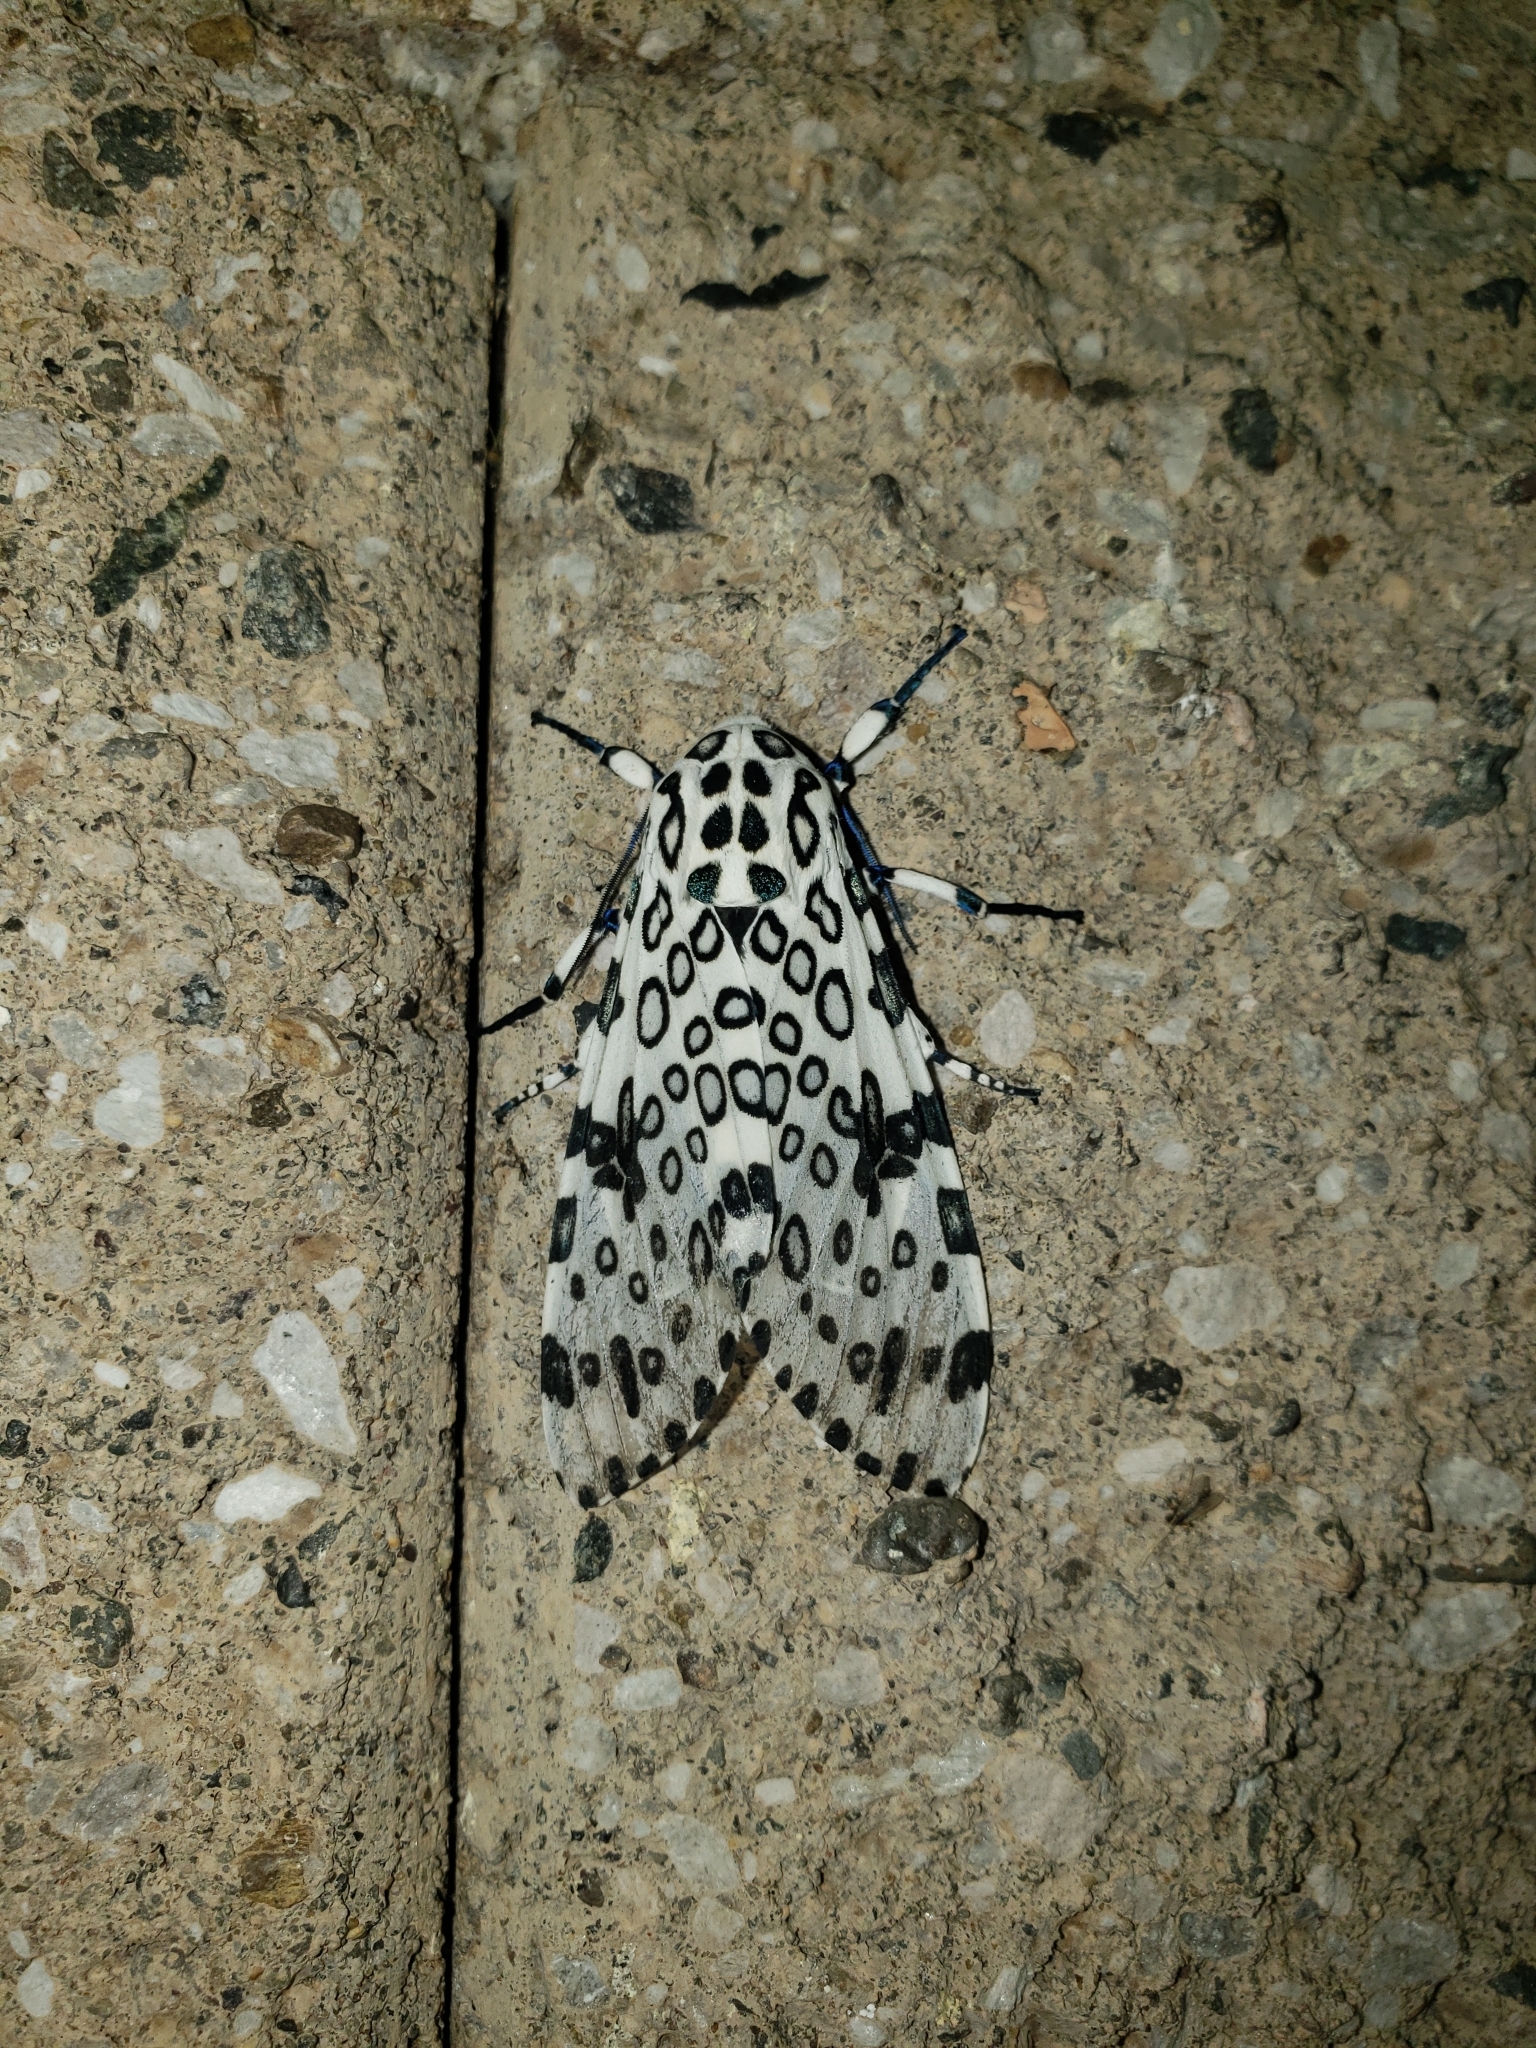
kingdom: Animalia
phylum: Arthropoda
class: Insecta
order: Lepidoptera
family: Erebidae
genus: Hypercompe
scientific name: Hypercompe scribonia
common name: Giant leopard moth
